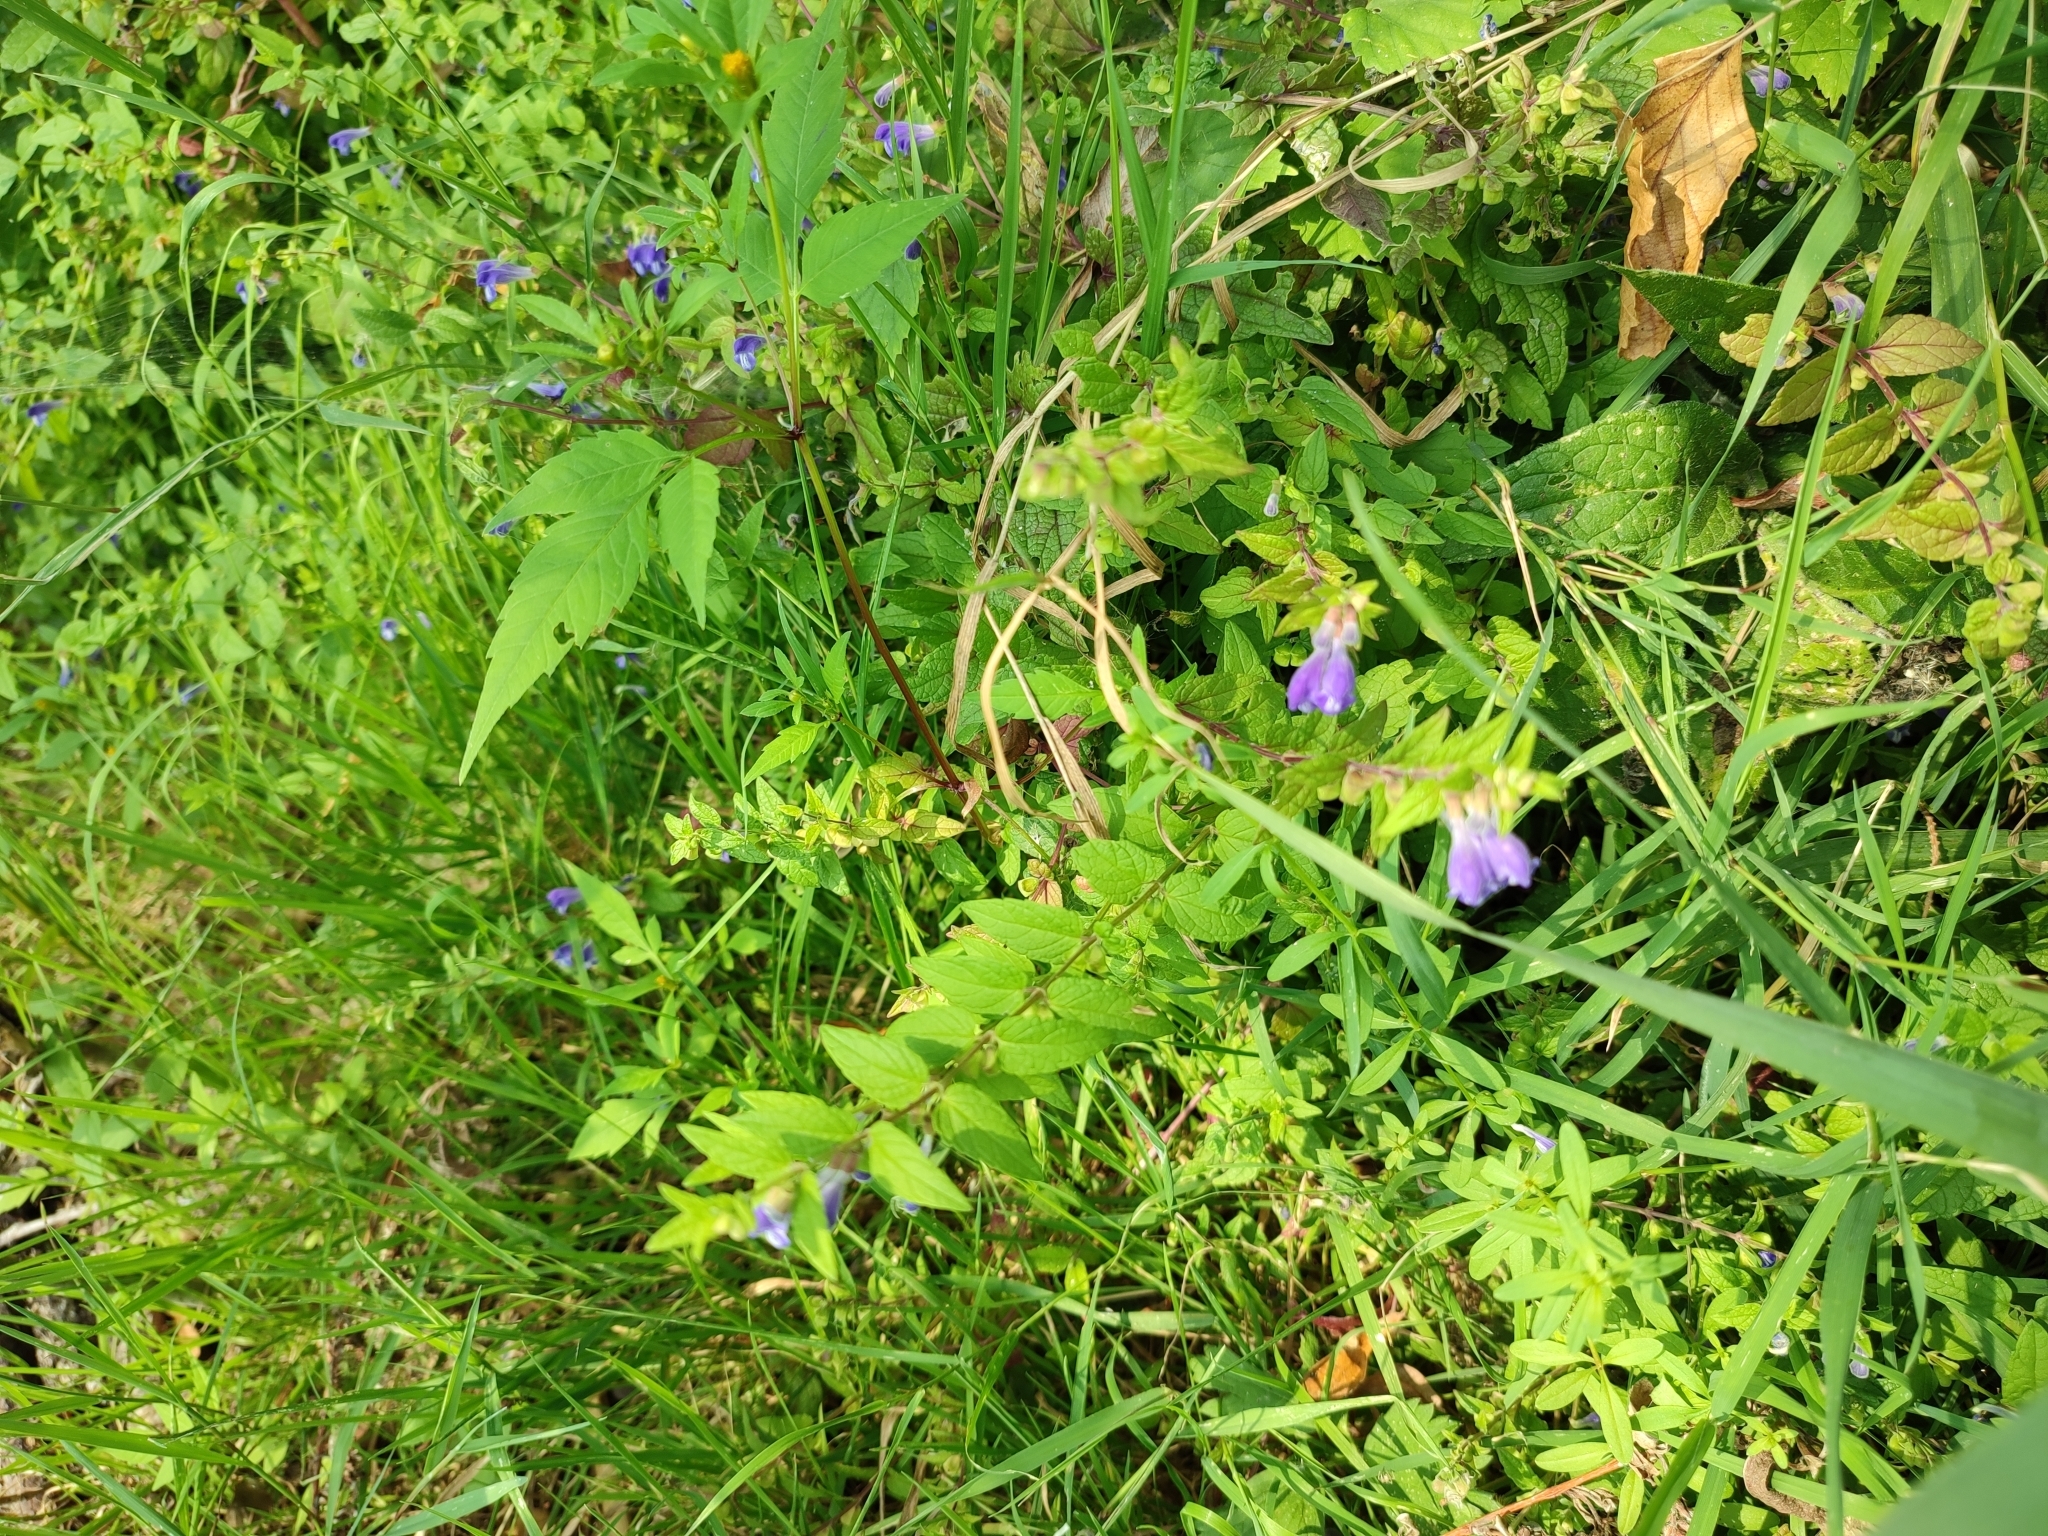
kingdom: Plantae
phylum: Tracheophyta
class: Magnoliopsida
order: Lamiales
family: Lamiaceae
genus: Scutellaria
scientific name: Scutellaria galericulata
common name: Skullcap
